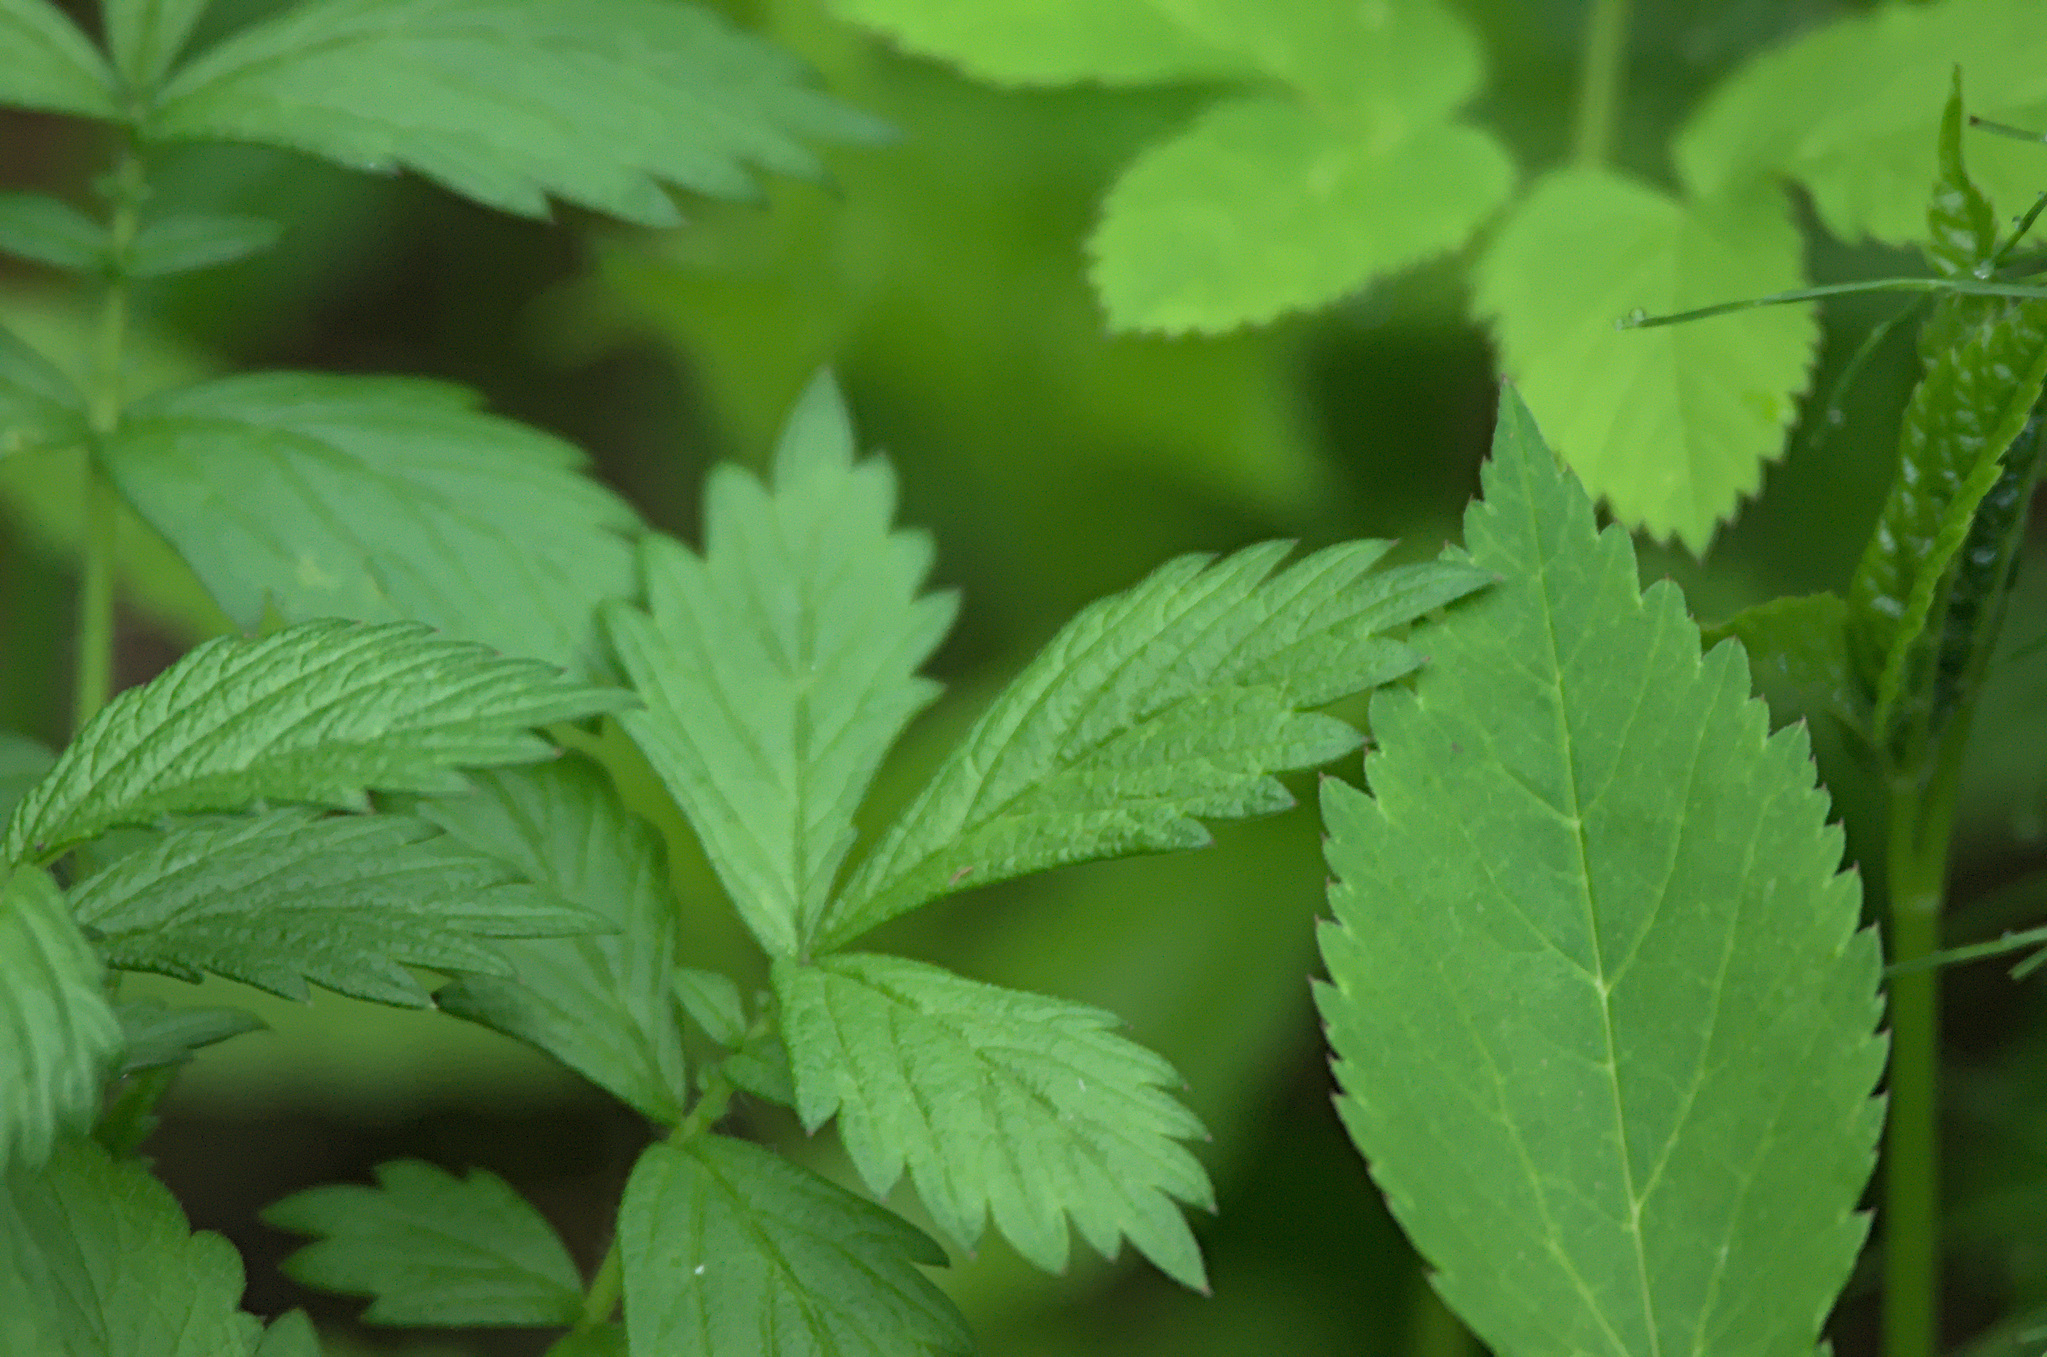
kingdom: Plantae
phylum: Tracheophyta
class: Magnoliopsida
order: Rosales
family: Rosaceae
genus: Agrimonia
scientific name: Agrimonia pilosa
